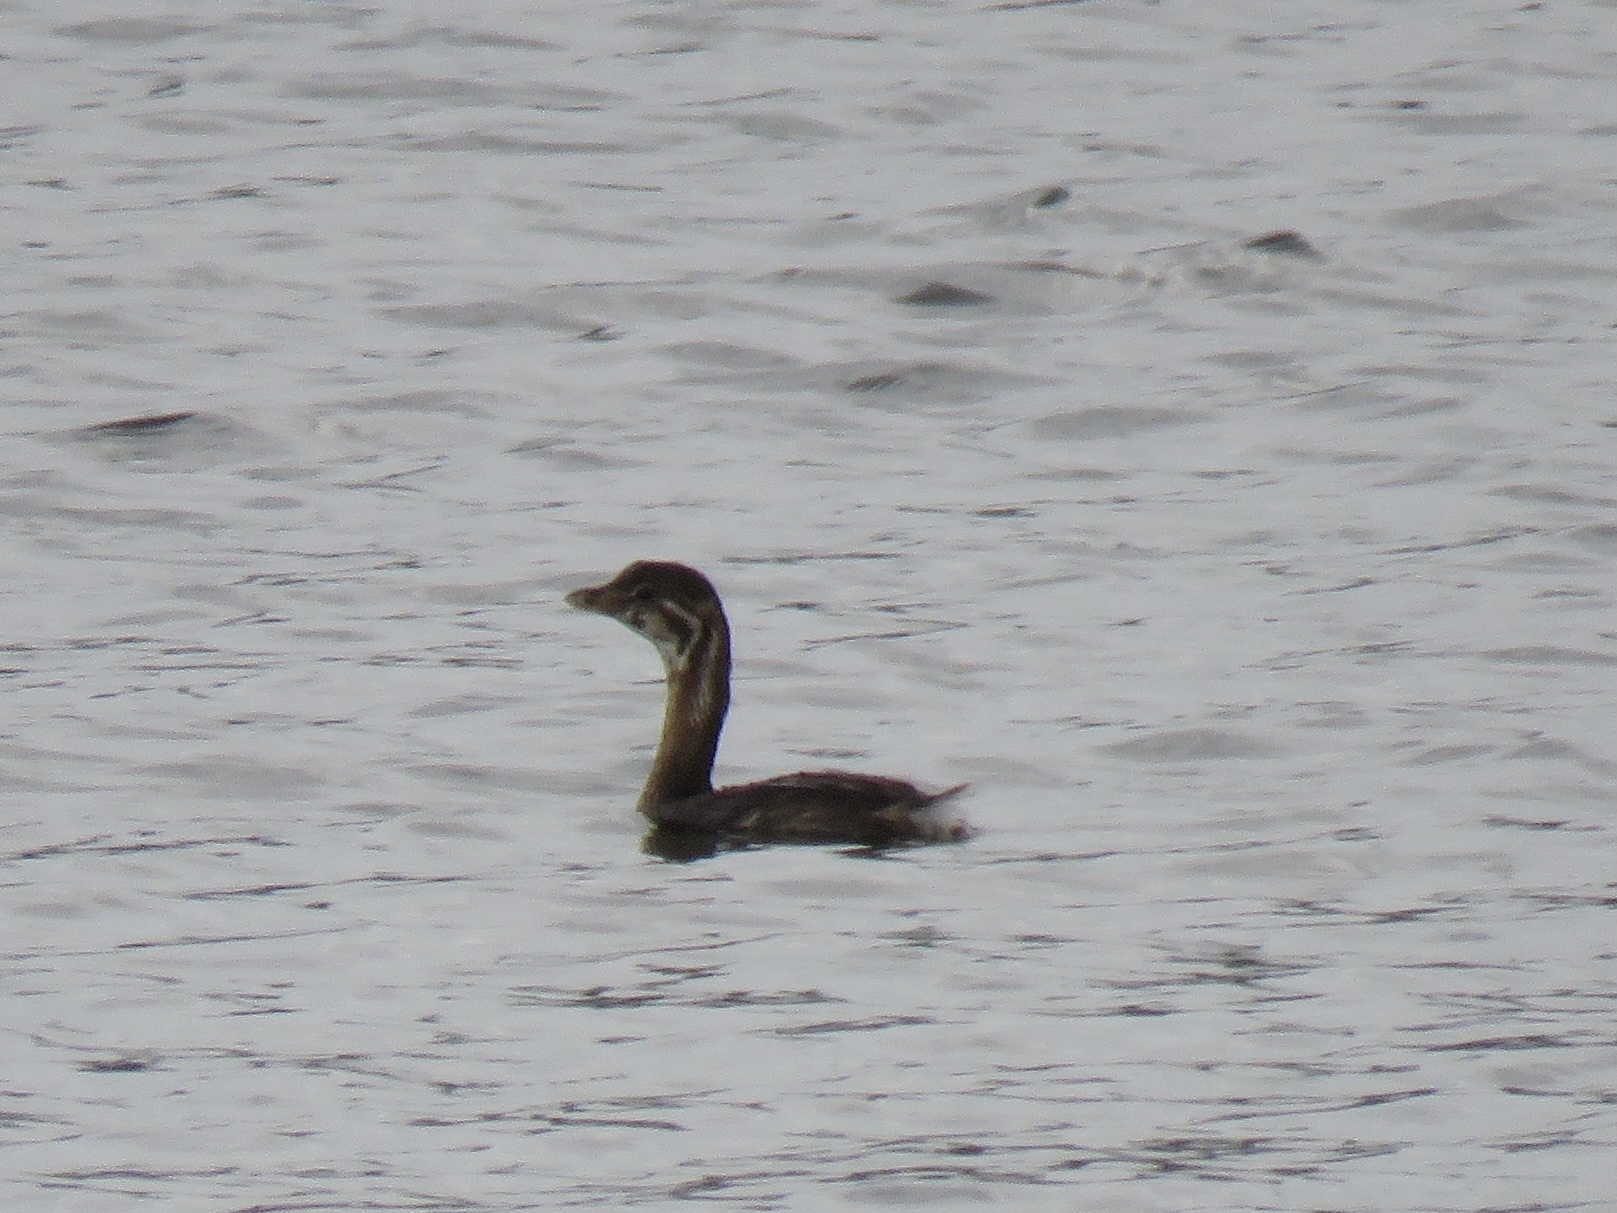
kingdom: Animalia
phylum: Chordata
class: Aves
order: Podicipediformes
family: Podicipedidae
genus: Podilymbus
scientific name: Podilymbus podiceps
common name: Pied-billed grebe
